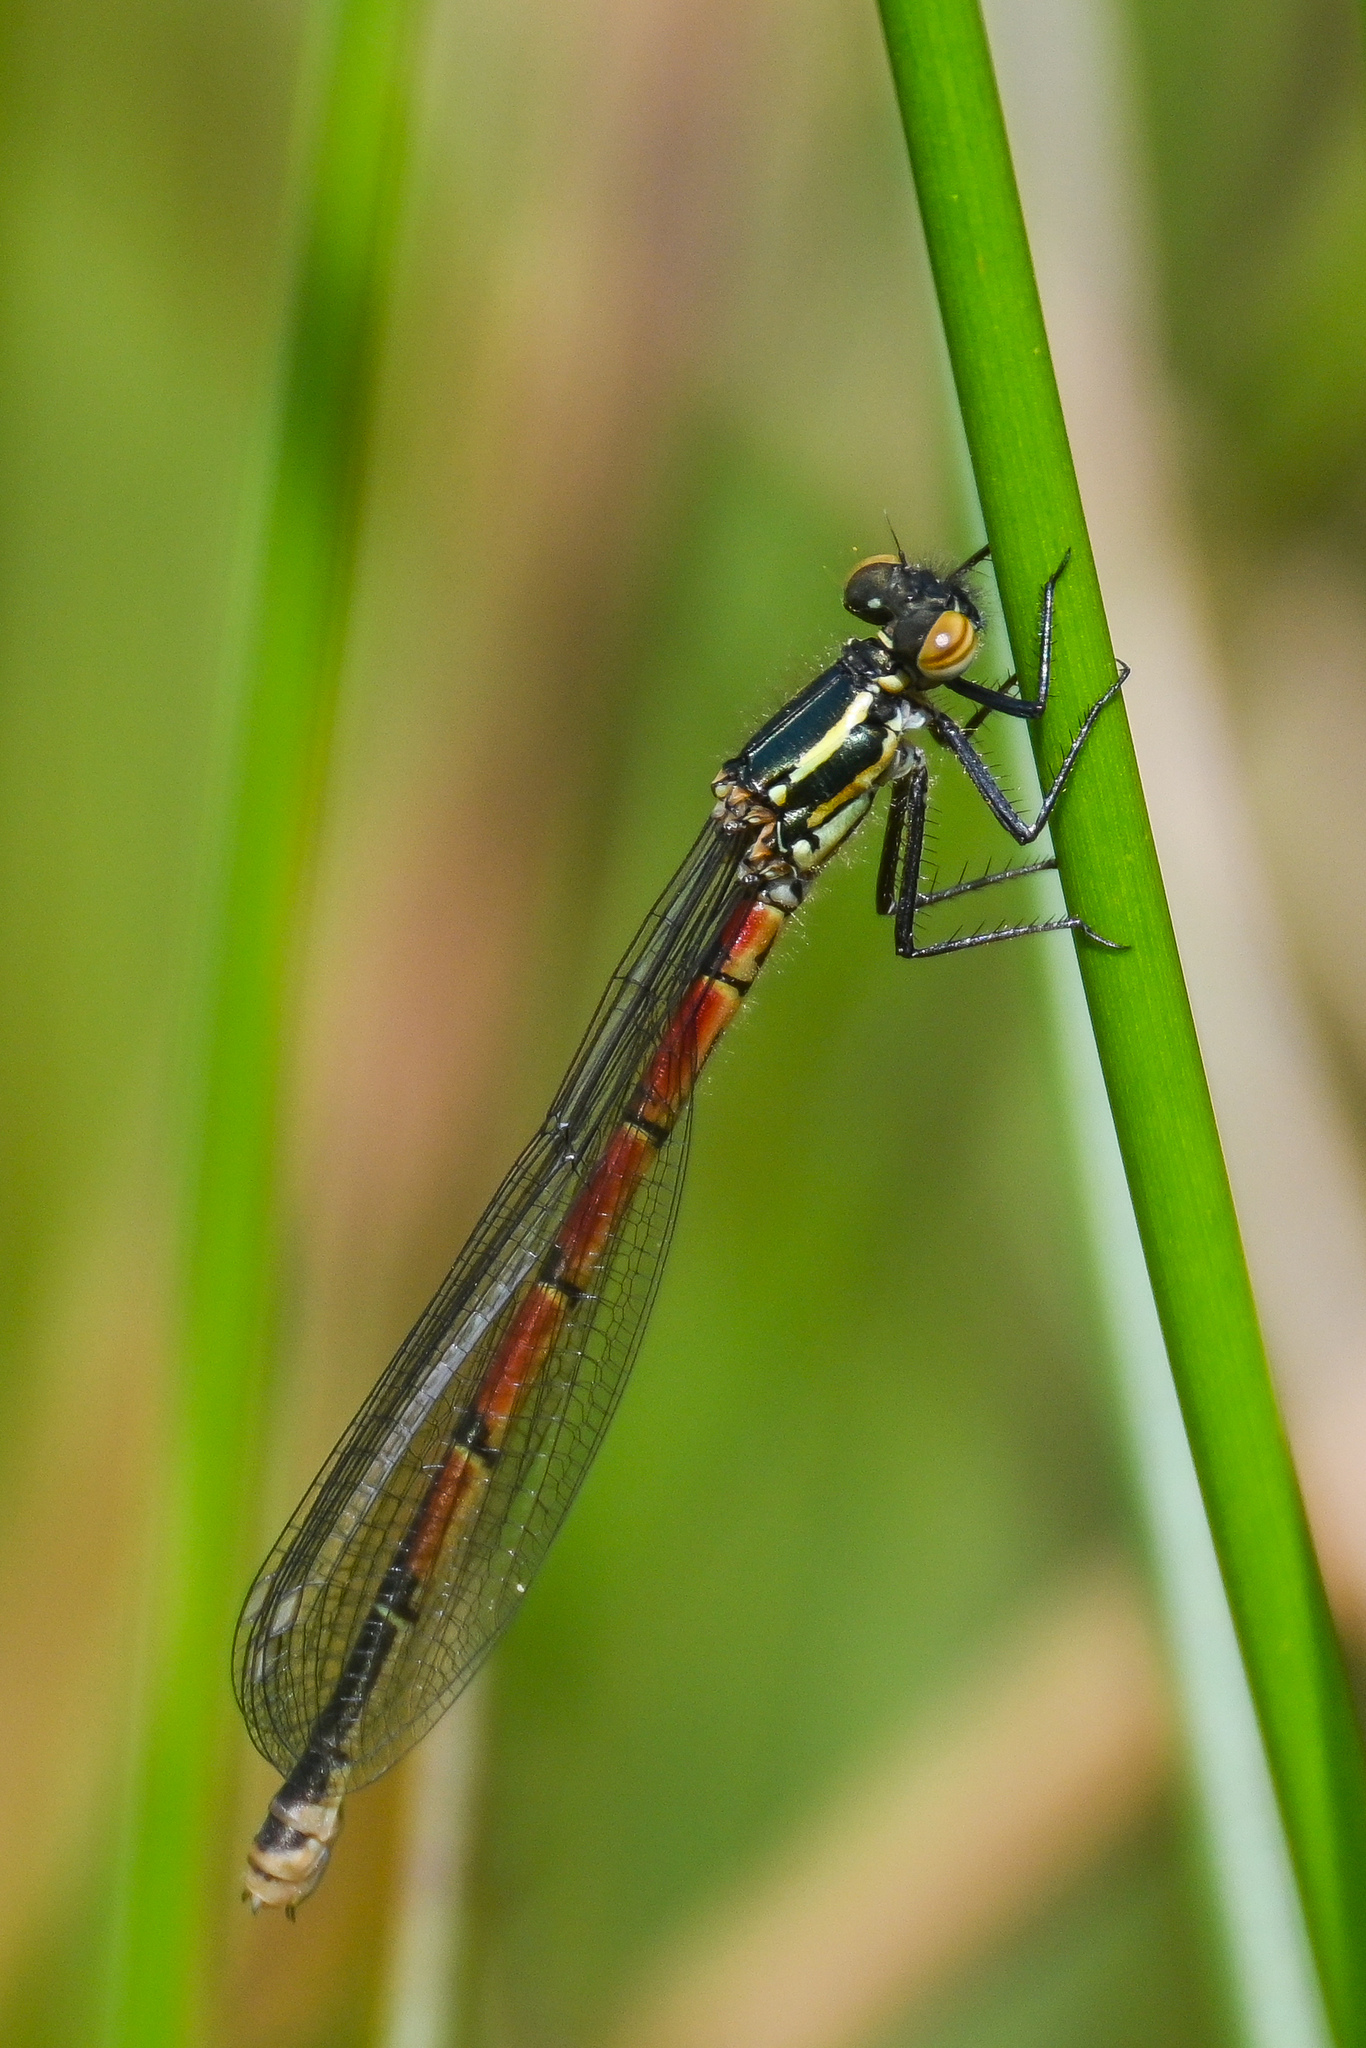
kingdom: Animalia
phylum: Arthropoda
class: Insecta
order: Odonata
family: Coenagrionidae
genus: Pyrrhosoma
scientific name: Pyrrhosoma nymphula
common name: Large red damsel
